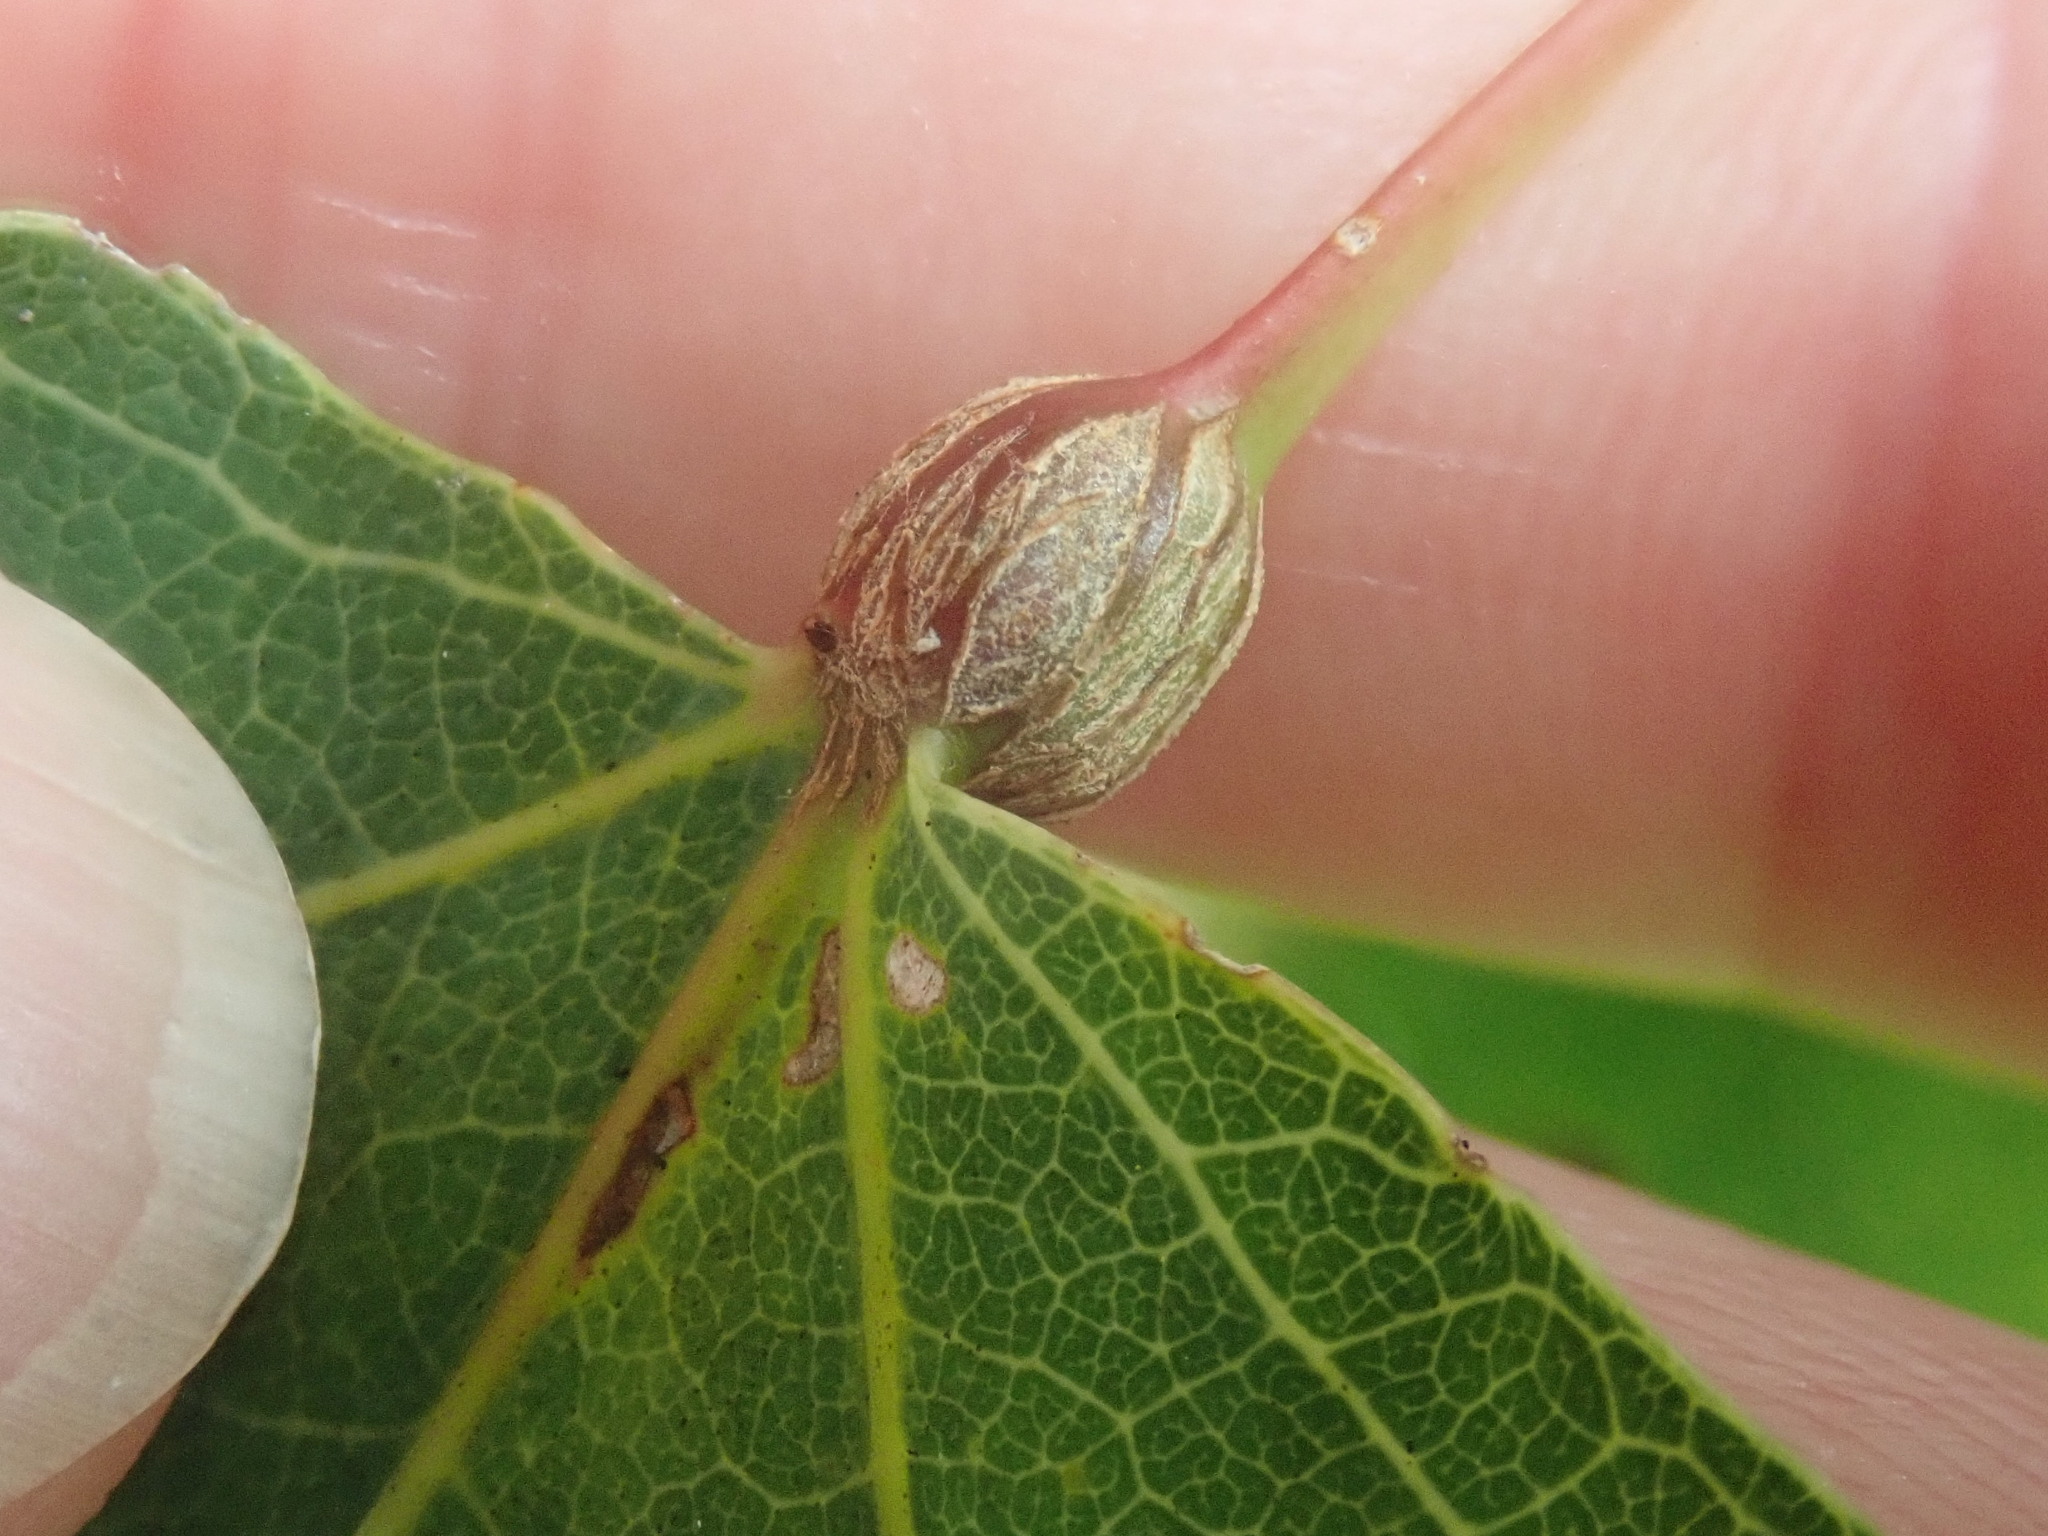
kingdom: Animalia
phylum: Arthropoda
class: Insecta
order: Lepidoptera
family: Nepticulidae
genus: Ectoedemia
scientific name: Ectoedemia populella
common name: Aspen petiole gall moth
